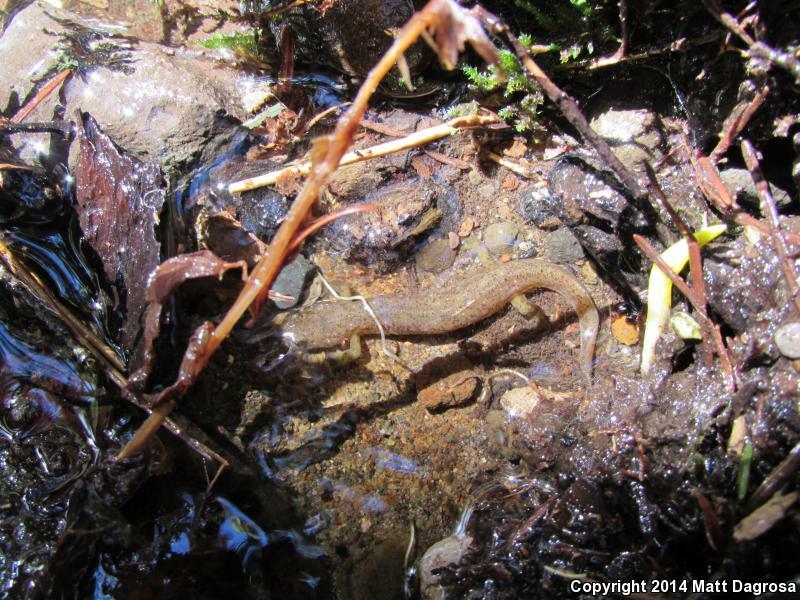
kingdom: Animalia
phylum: Chordata
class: Amphibia
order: Caudata
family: Rhyacotritonidae
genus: Rhyacotriton
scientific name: Rhyacotriton cascadae
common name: Cascade torrent salamander
